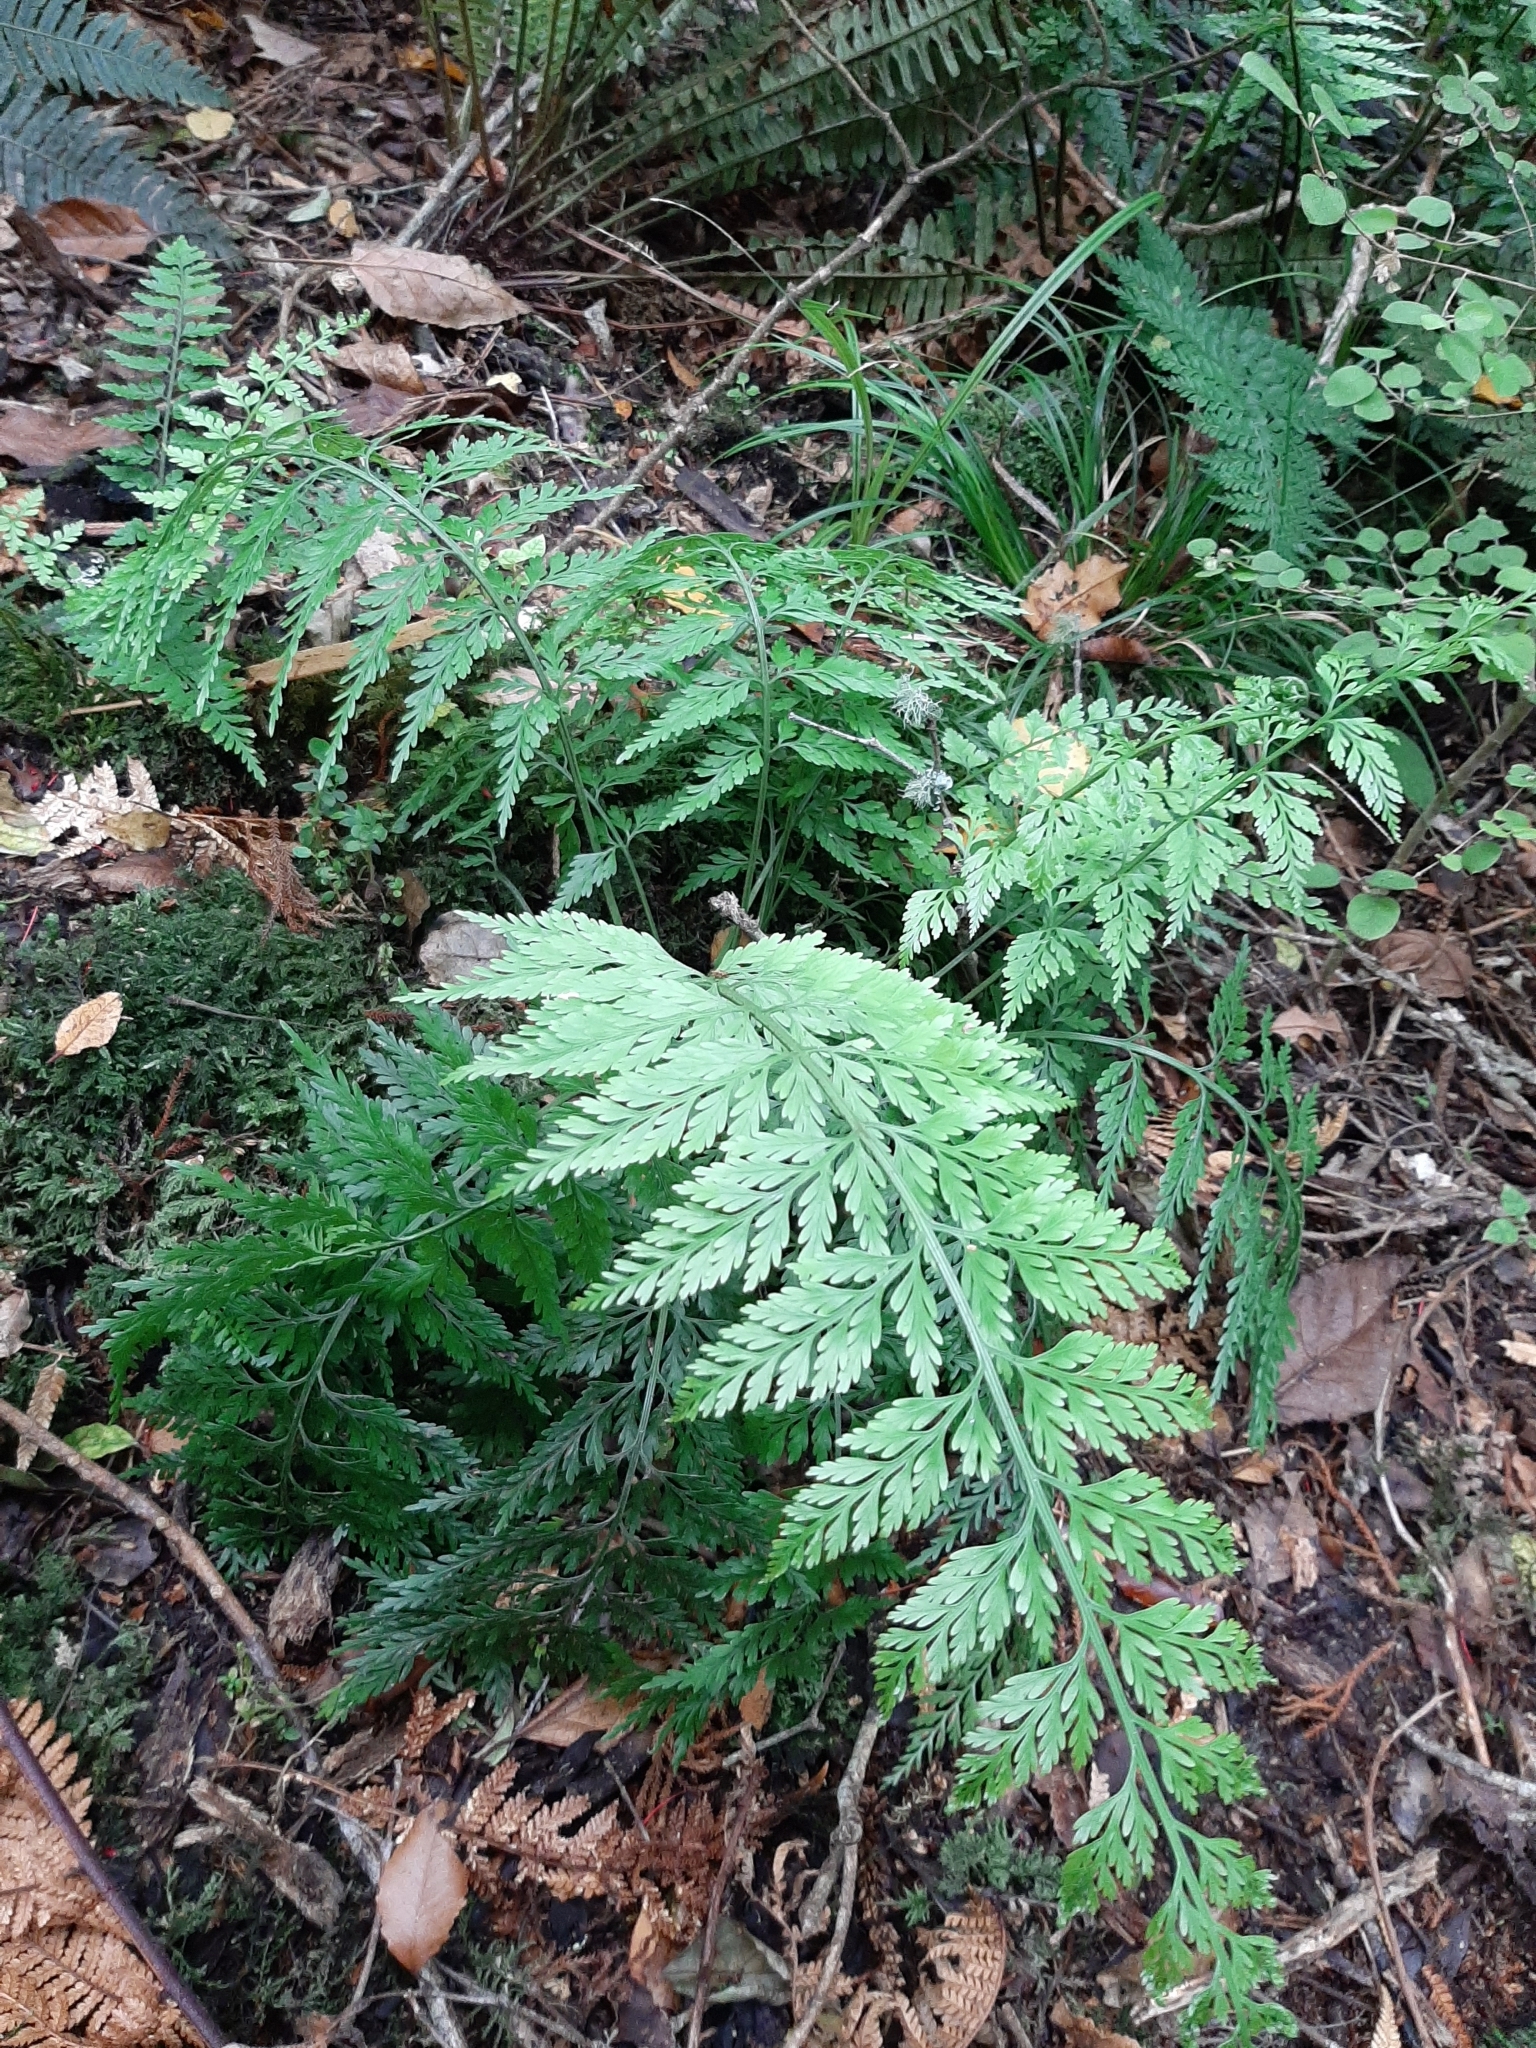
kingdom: Plantae
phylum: Tracheophyta
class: Polypodiopsida
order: Polypodiales
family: Aspleniaceae
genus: Asplenium
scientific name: Asplenium
